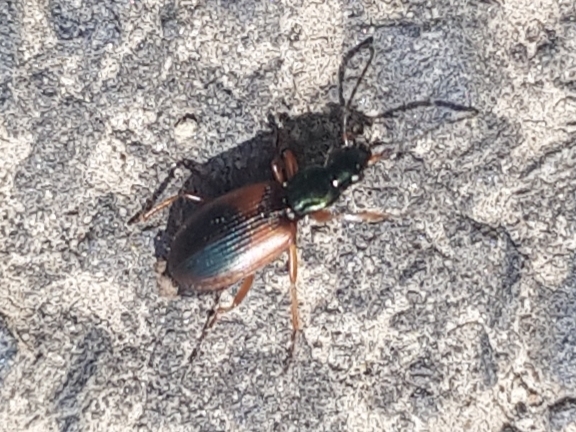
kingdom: Animalia
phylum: Arthropoda
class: Insecta
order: Coleoptera
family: Carabidae
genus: Anchomenus
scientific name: Anchomenus dorsalis
